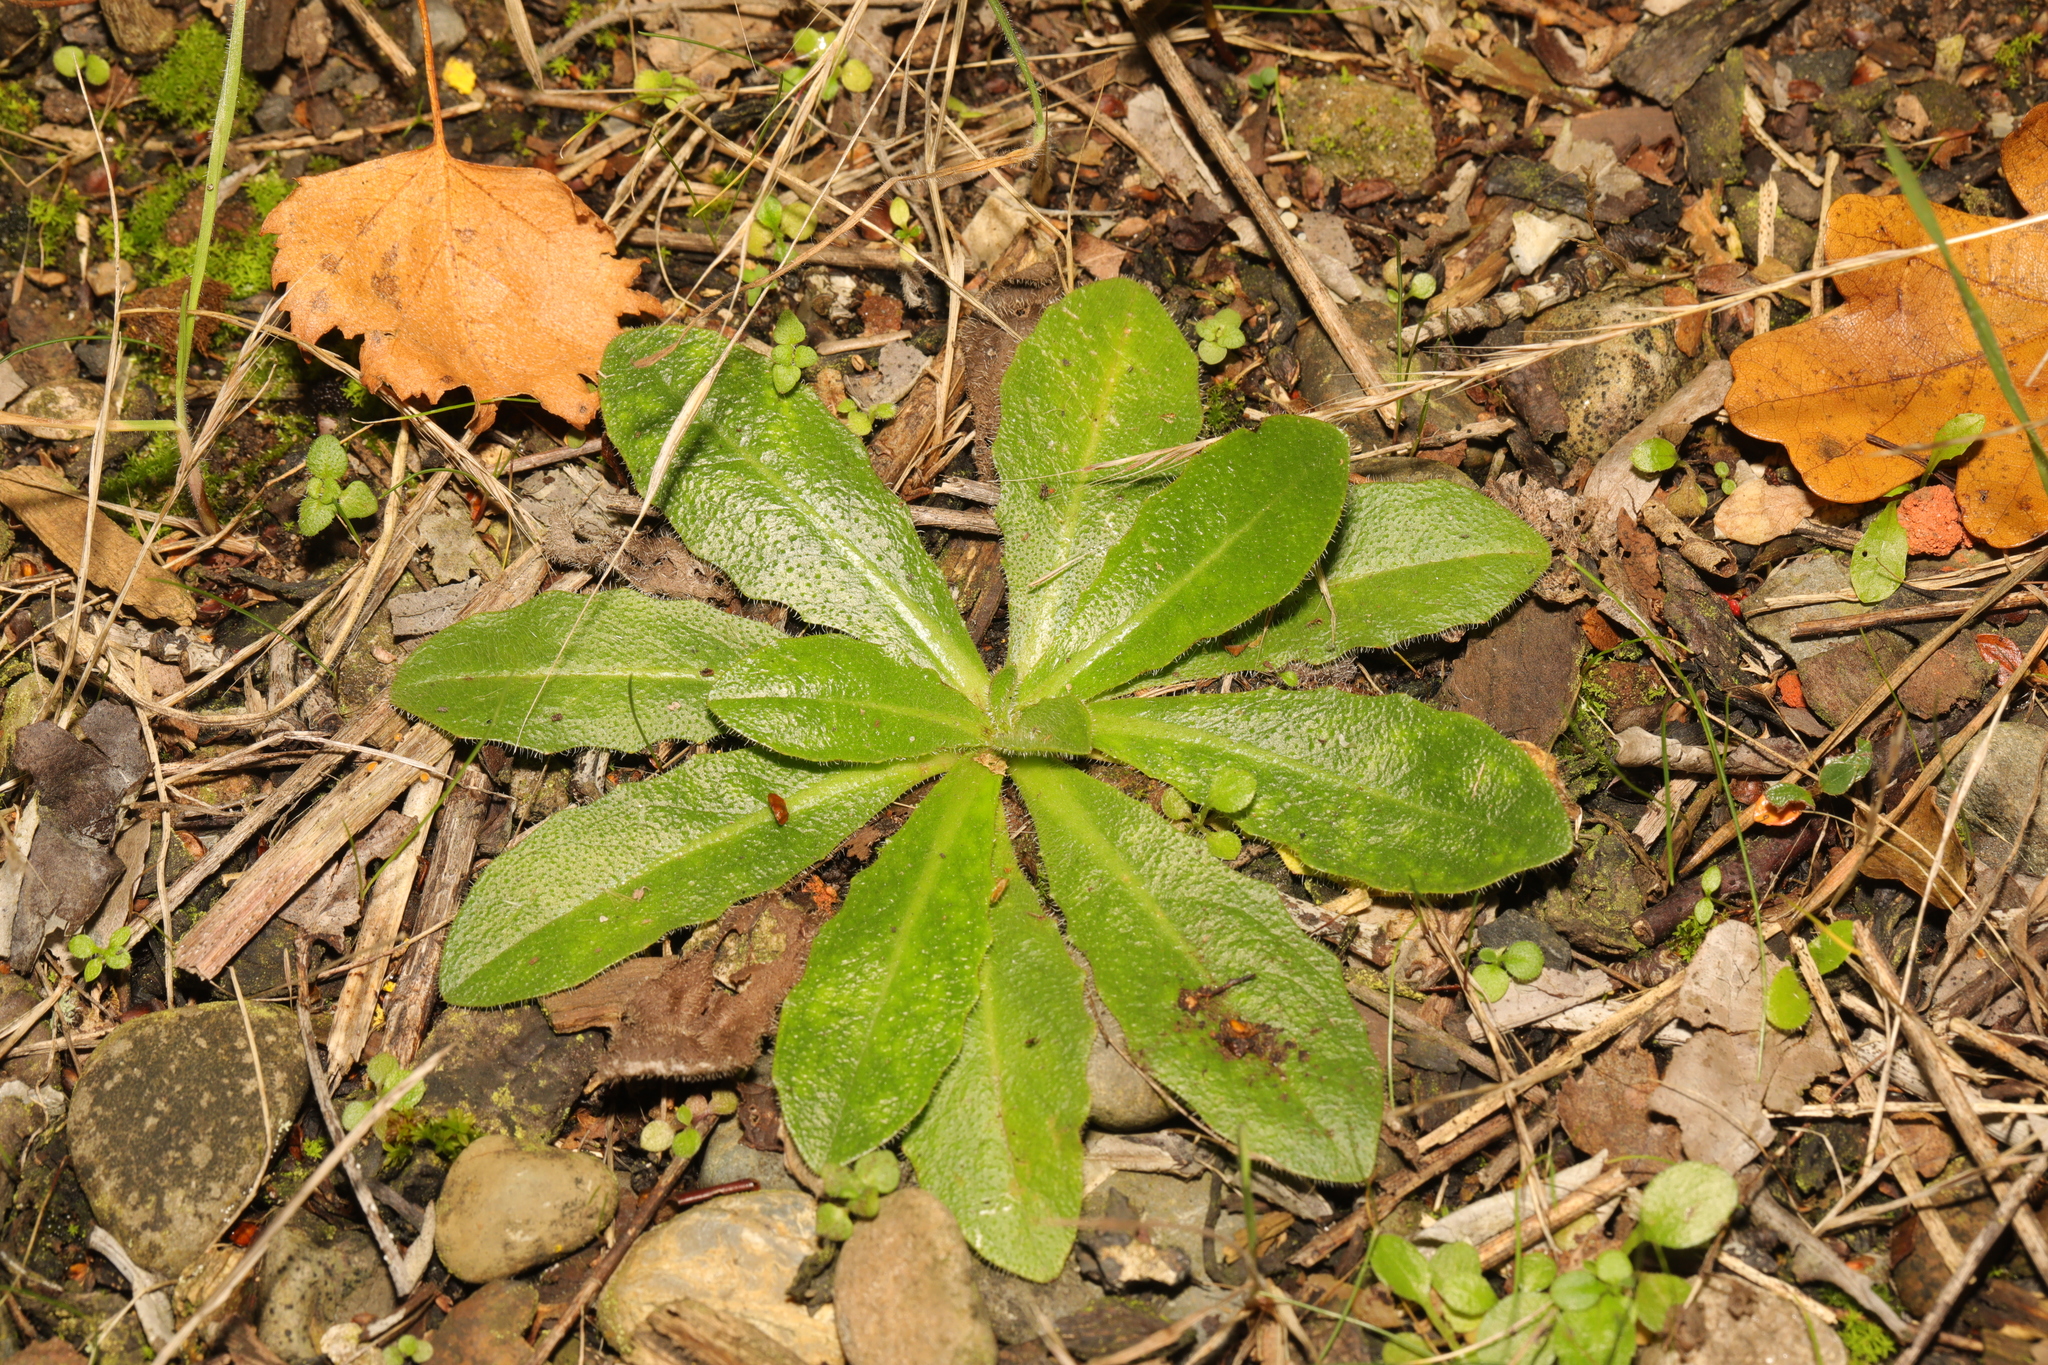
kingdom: Plantae
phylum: Tracheophyta
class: Magnoliopsida
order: Asterales
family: Asteraceae
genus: Hypochaeris
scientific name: Hypochaeris radicata
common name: Flatweed
